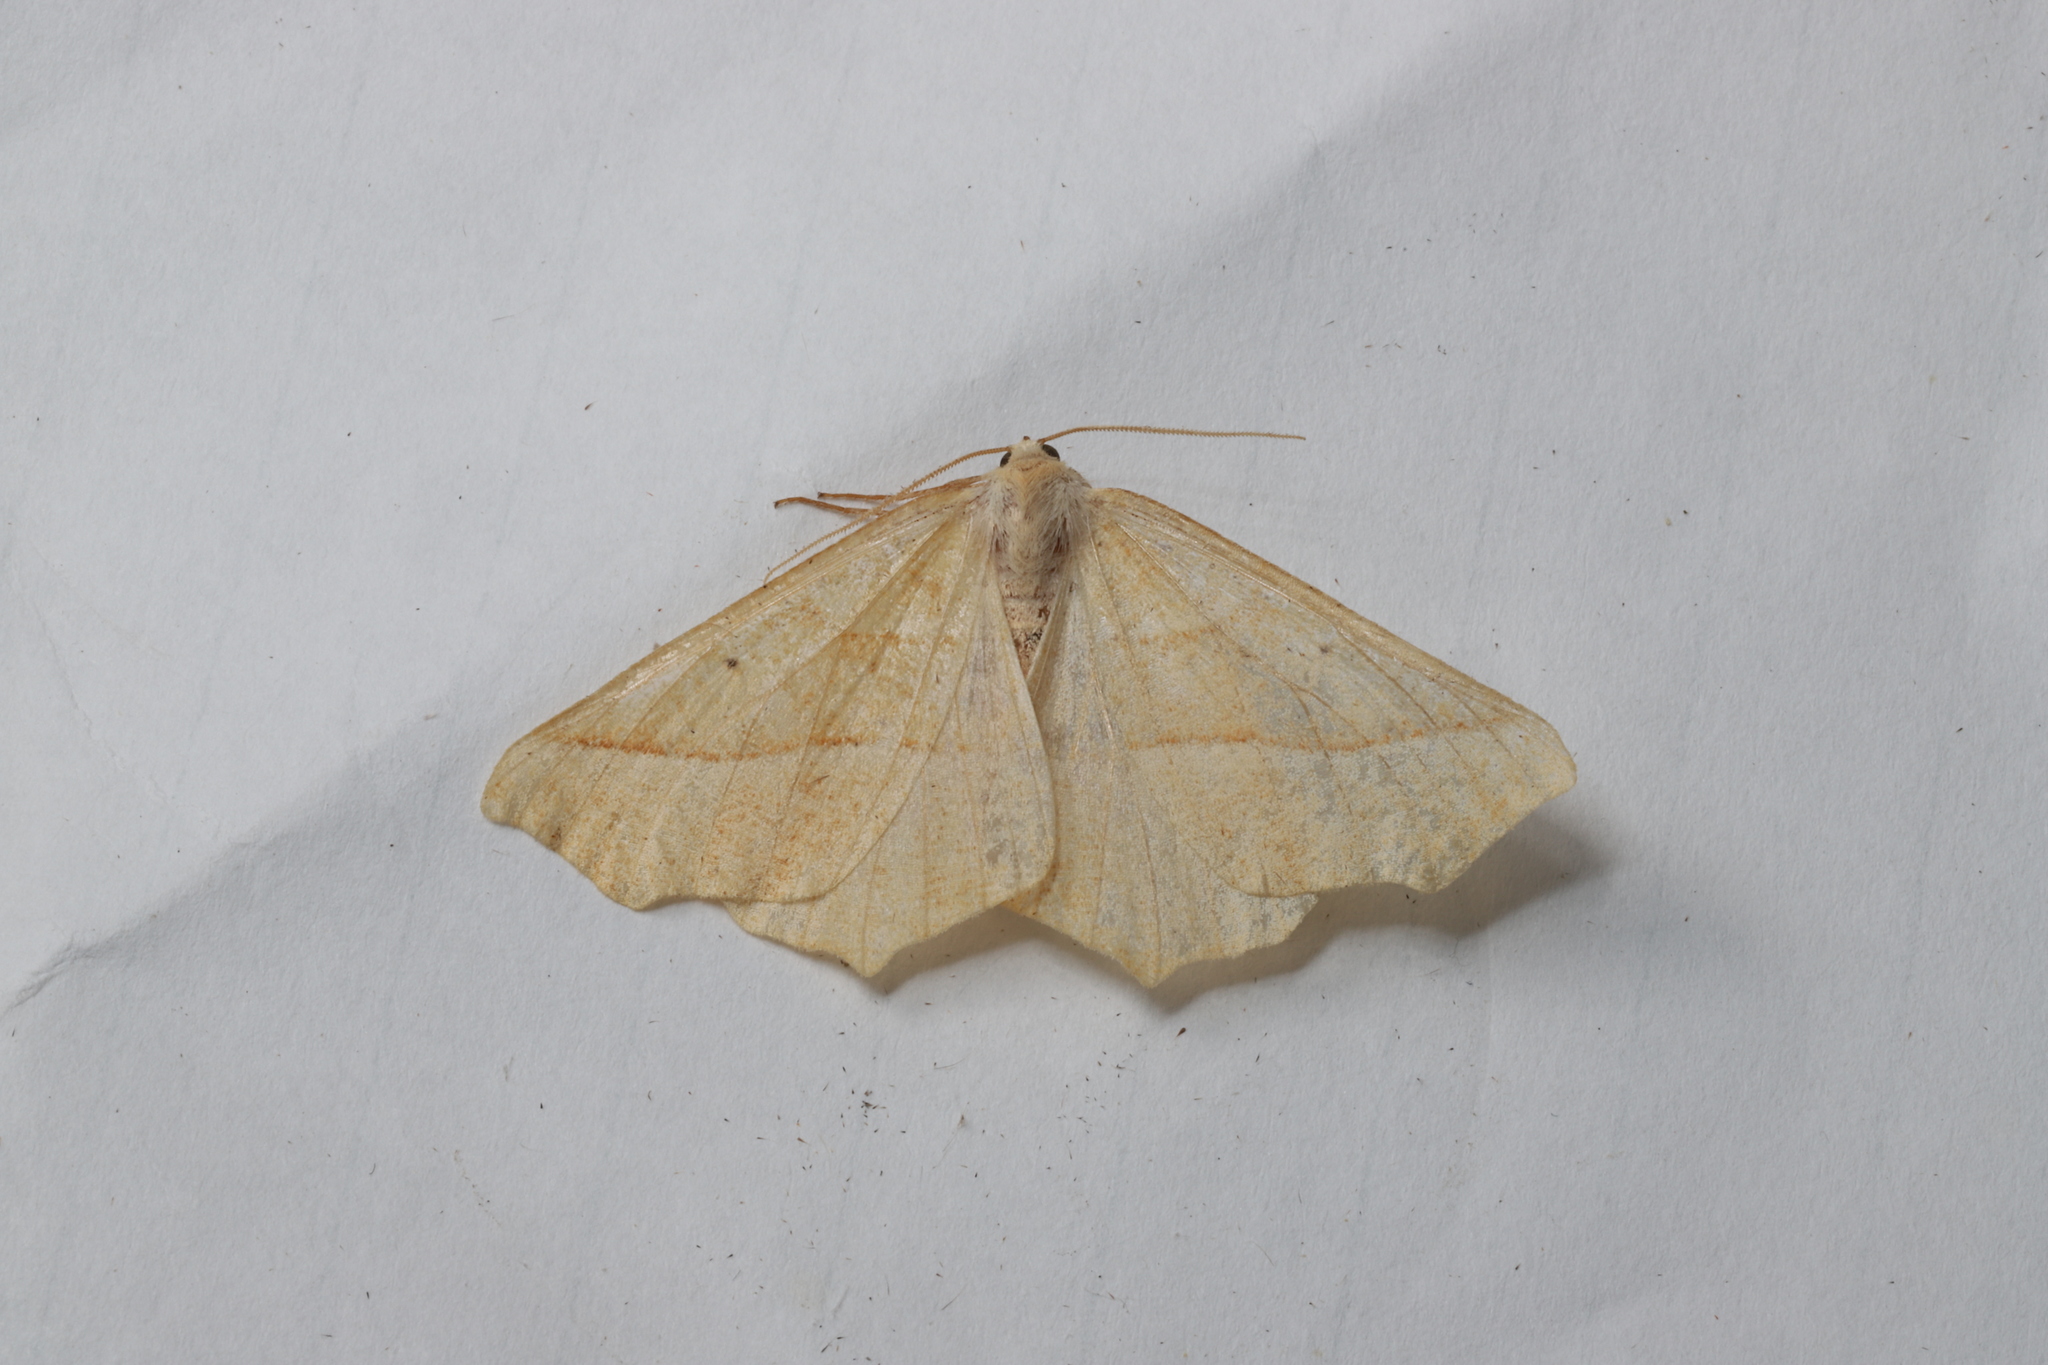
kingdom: Animalia
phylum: Arthropoda
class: Insecta
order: Lepidoptera
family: Geometridae
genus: Synaxis
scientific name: Synaxis jubararia
